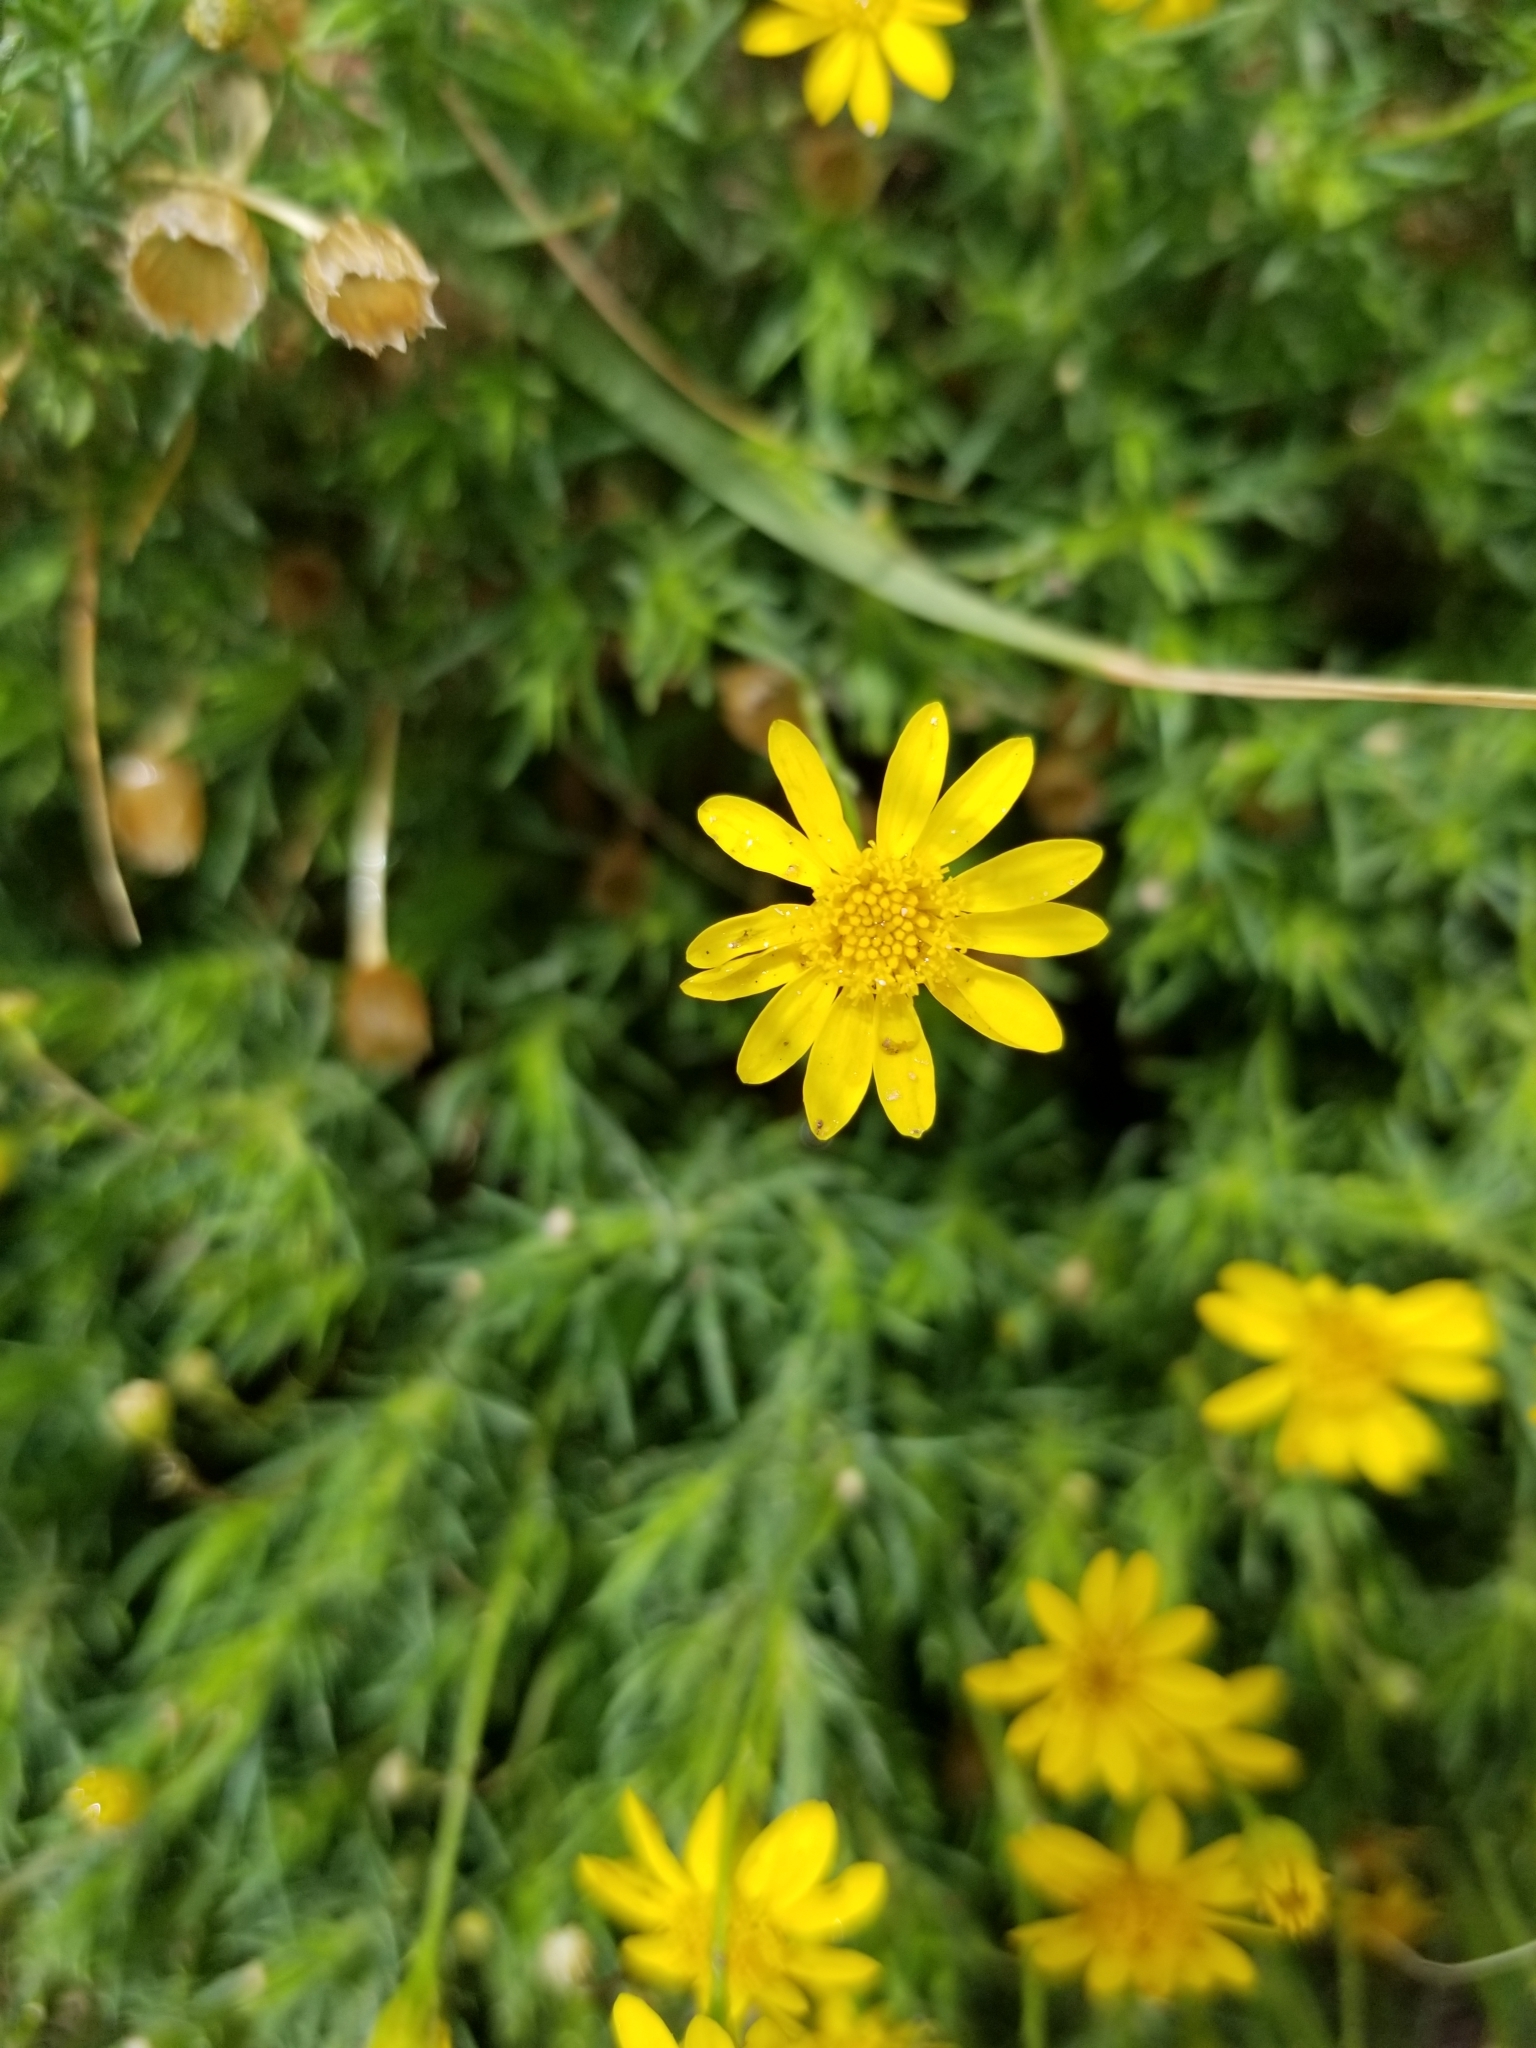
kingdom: Plantae
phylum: Tracheophyta
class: Magnoliopsida
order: Asterales
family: Asteraceae
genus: Thymophylla
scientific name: Thymophylla pentachaeta
